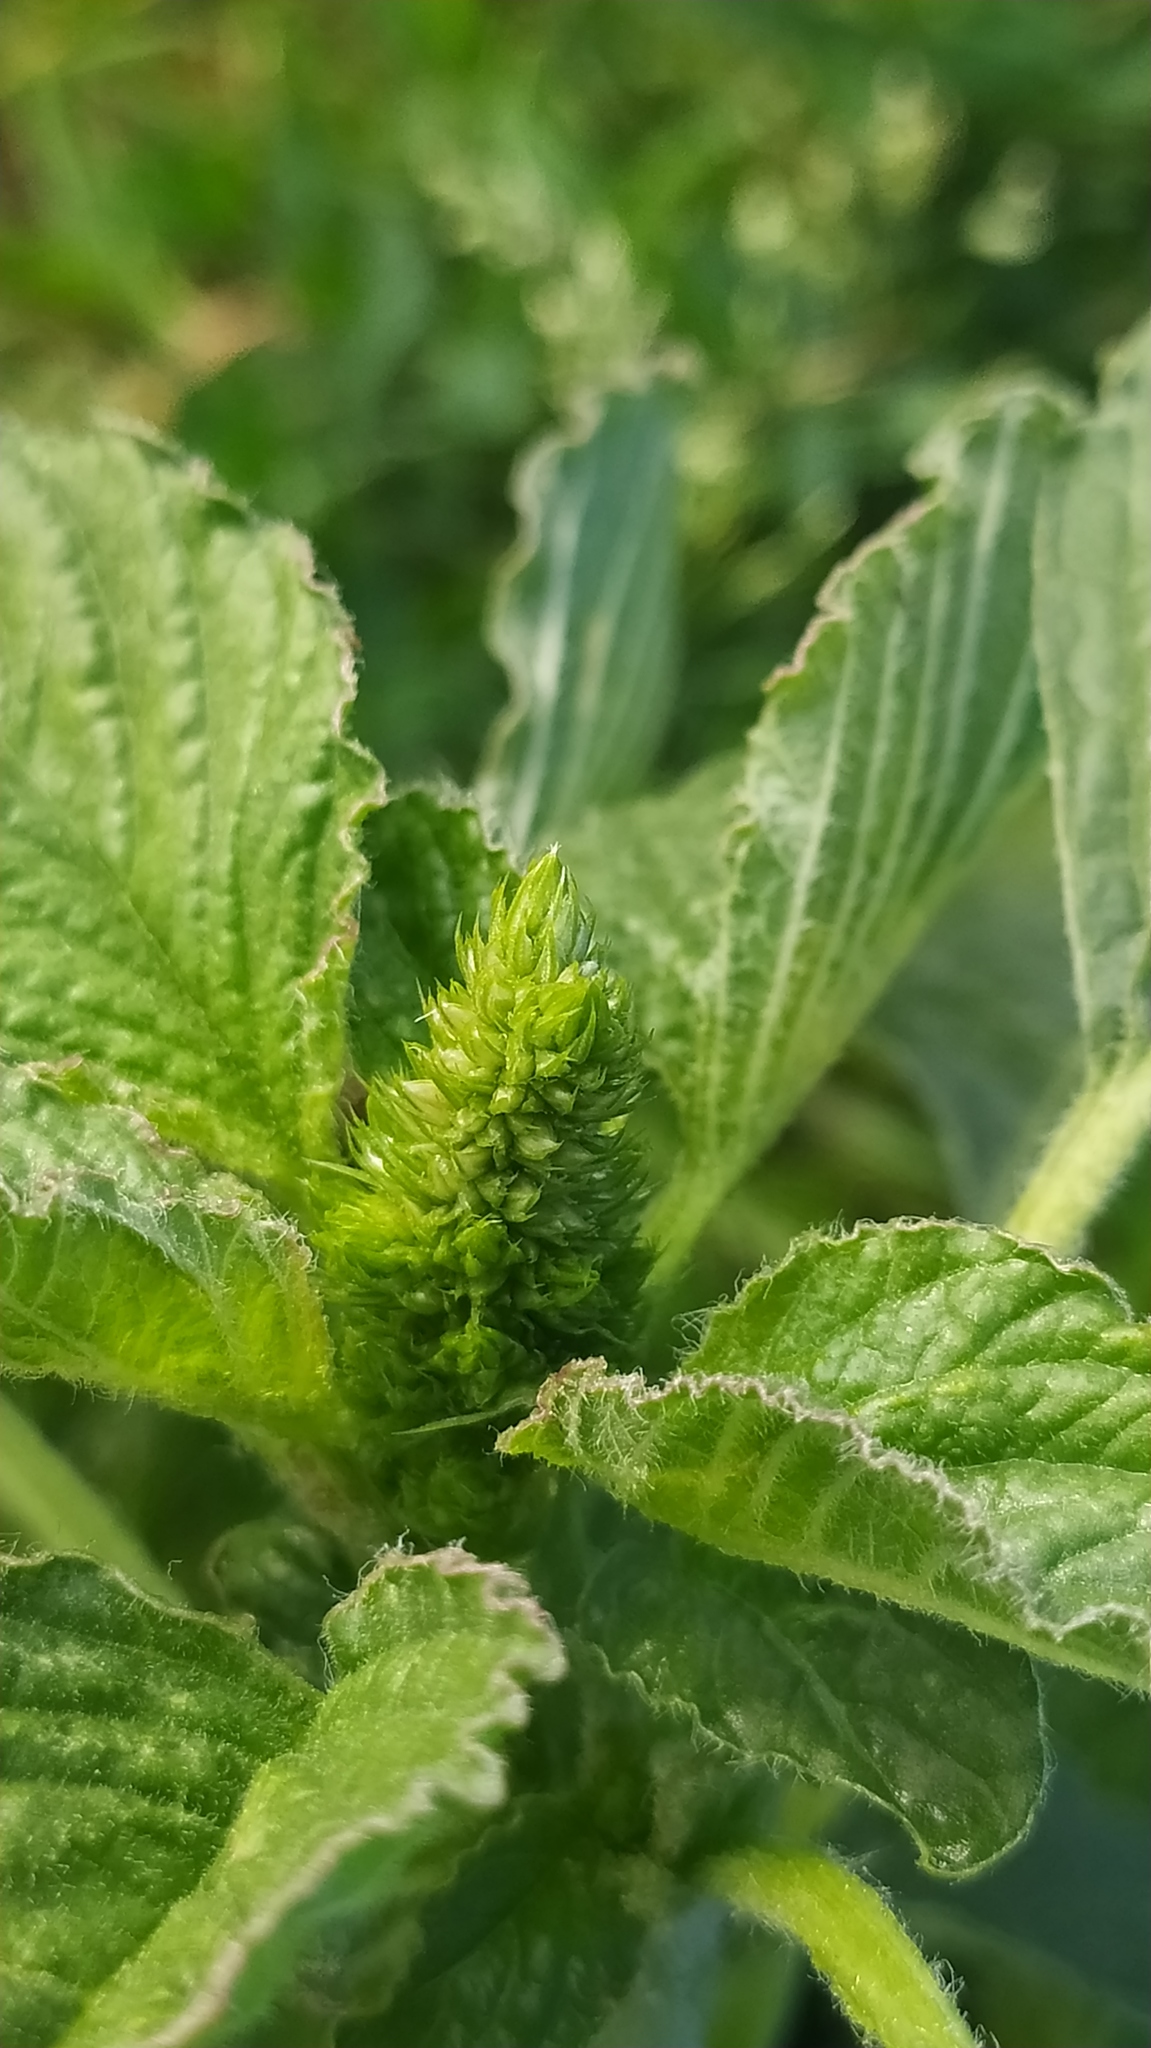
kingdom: Plantae
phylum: Tracheophyta
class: Magnoliopsida
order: Caryophyllales
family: Amaranthaceae
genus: Amaranthus
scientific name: Amaranthus retroflexus
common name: Redroot amaranth
